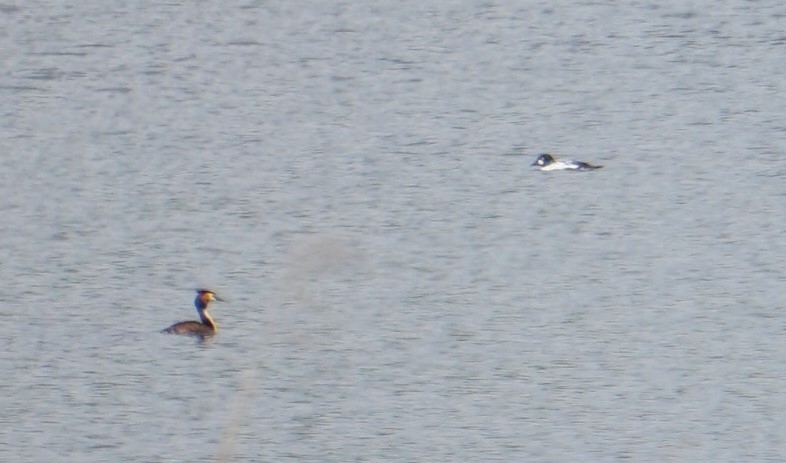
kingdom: Animalia
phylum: Chordata
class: Aves
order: Podicipediformes
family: Podicipedidae
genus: Podiceps
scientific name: Podiceps cristatus
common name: Great crested grebe
